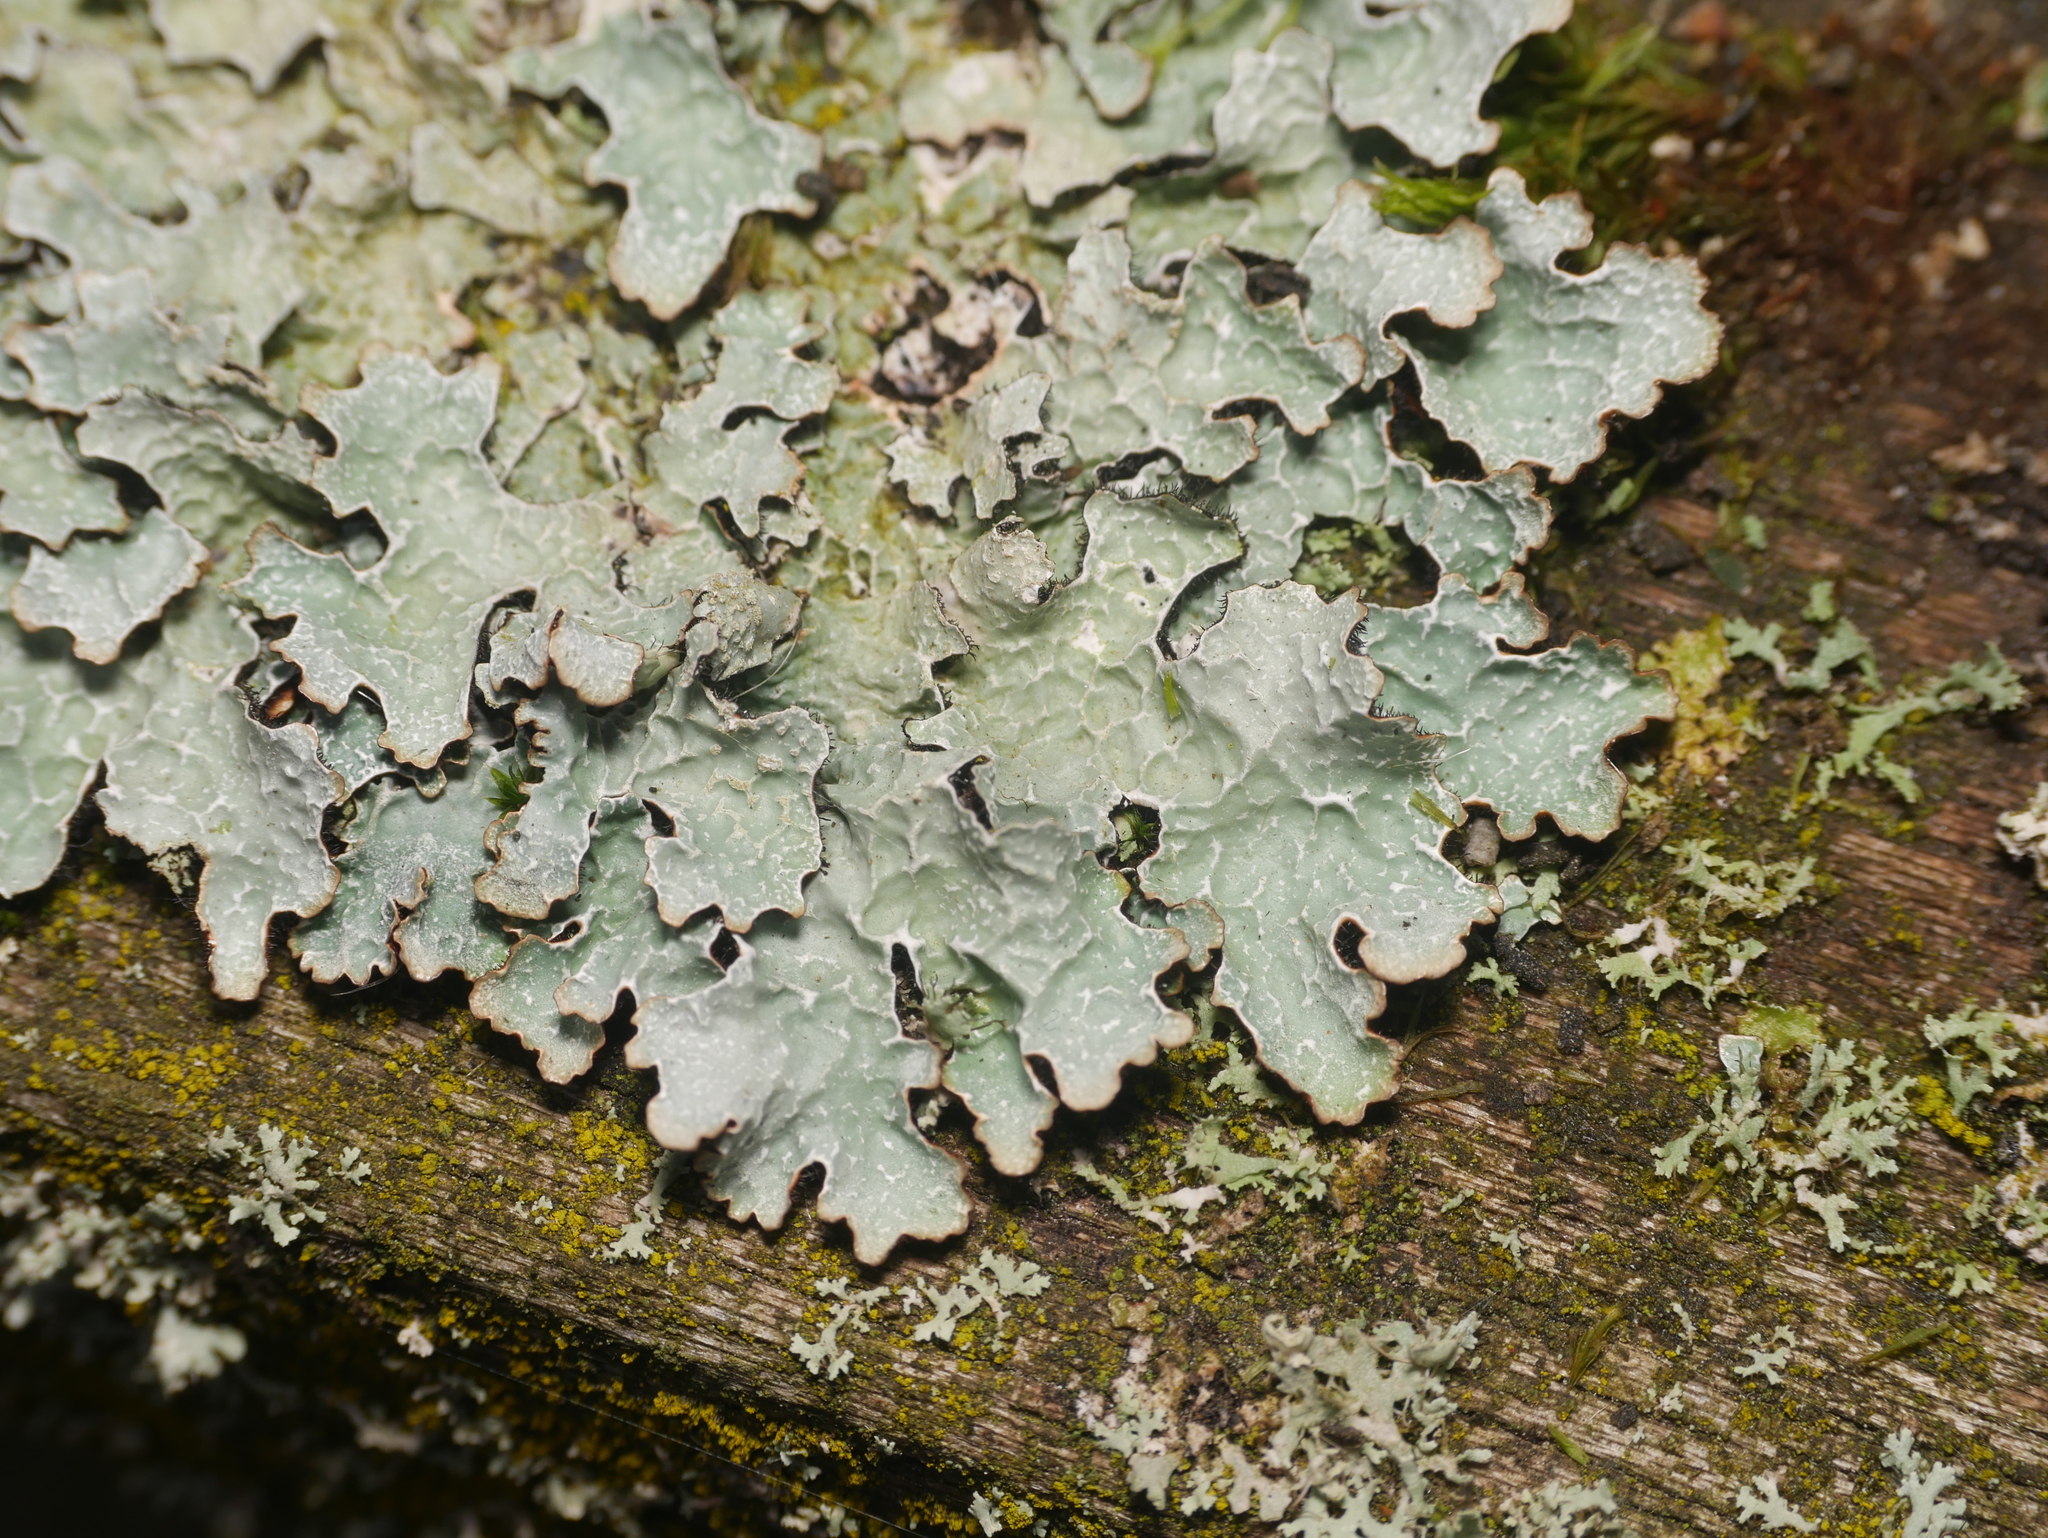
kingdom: Fungi
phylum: Ascomycota
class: Lecanoromycetes
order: Lecanorales
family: Parmeliaceae
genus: Parmelia
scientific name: Parmelia sulcata
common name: Netted shield lichen
